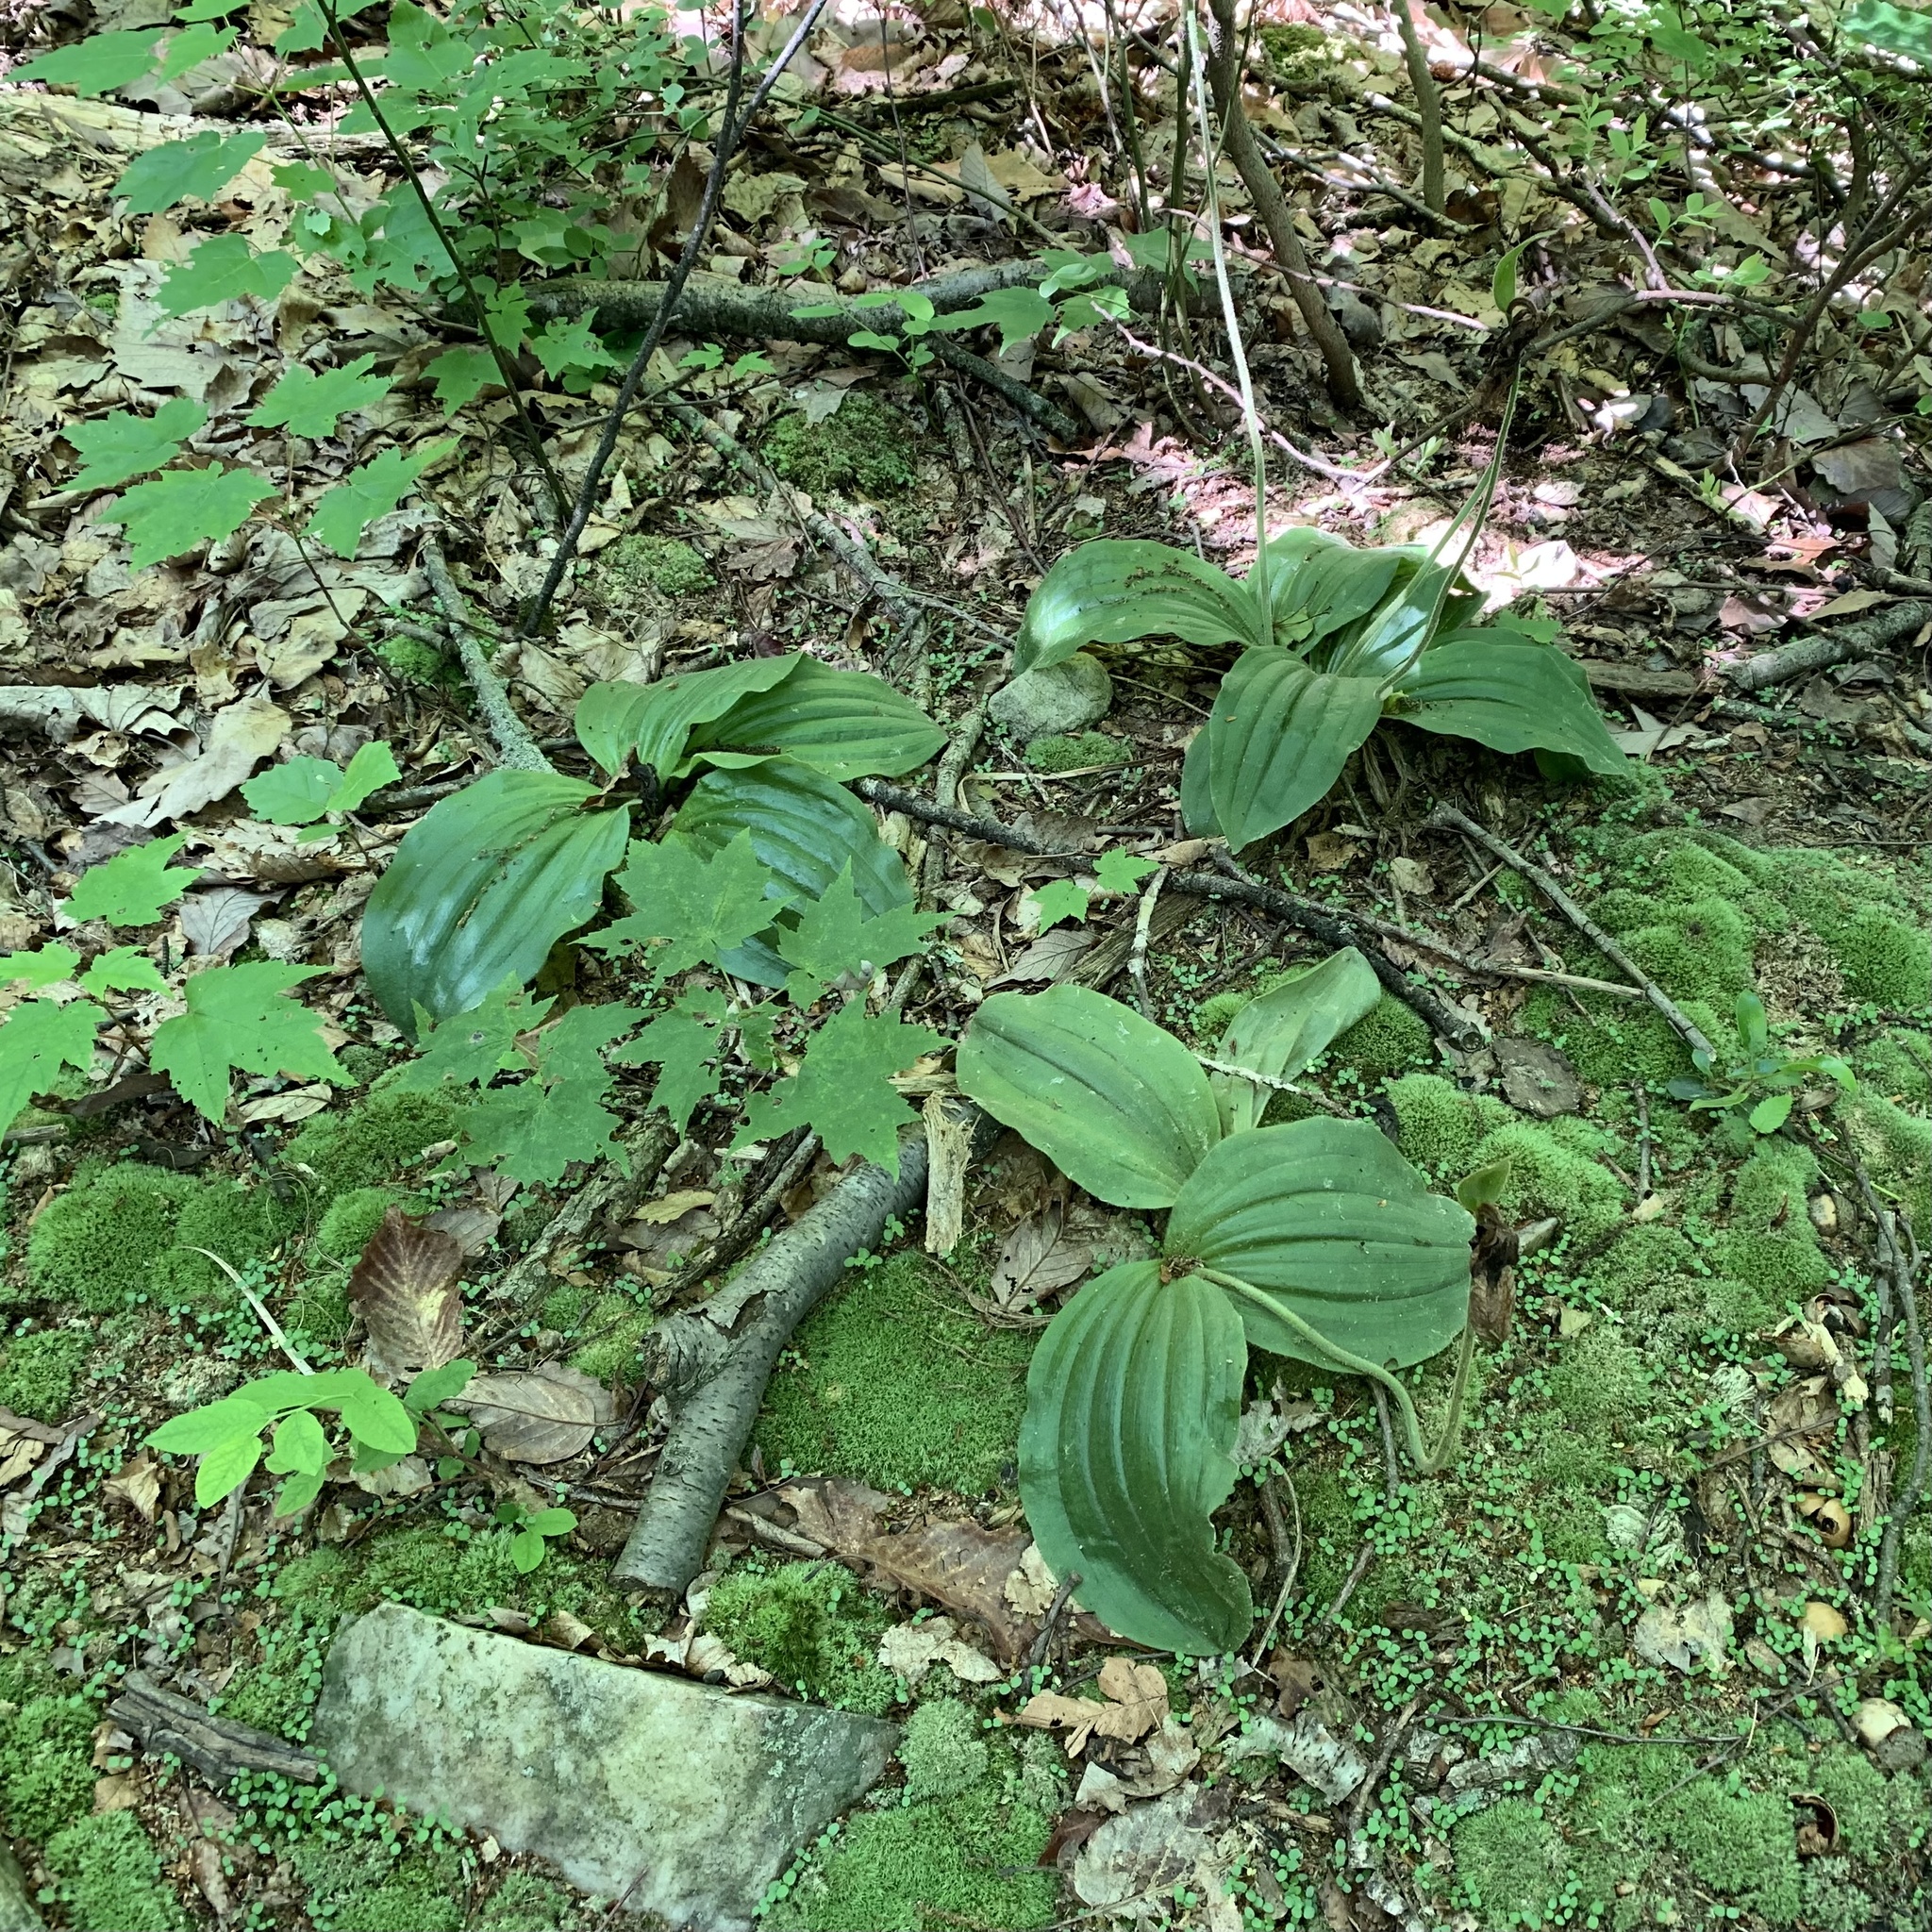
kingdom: Plantae
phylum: Tracheophyta
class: Liliopsida
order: Asparagales
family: Orchidaceae
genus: Cypripedium
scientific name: Cypripedium acaule
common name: Pink lady's-slipper
